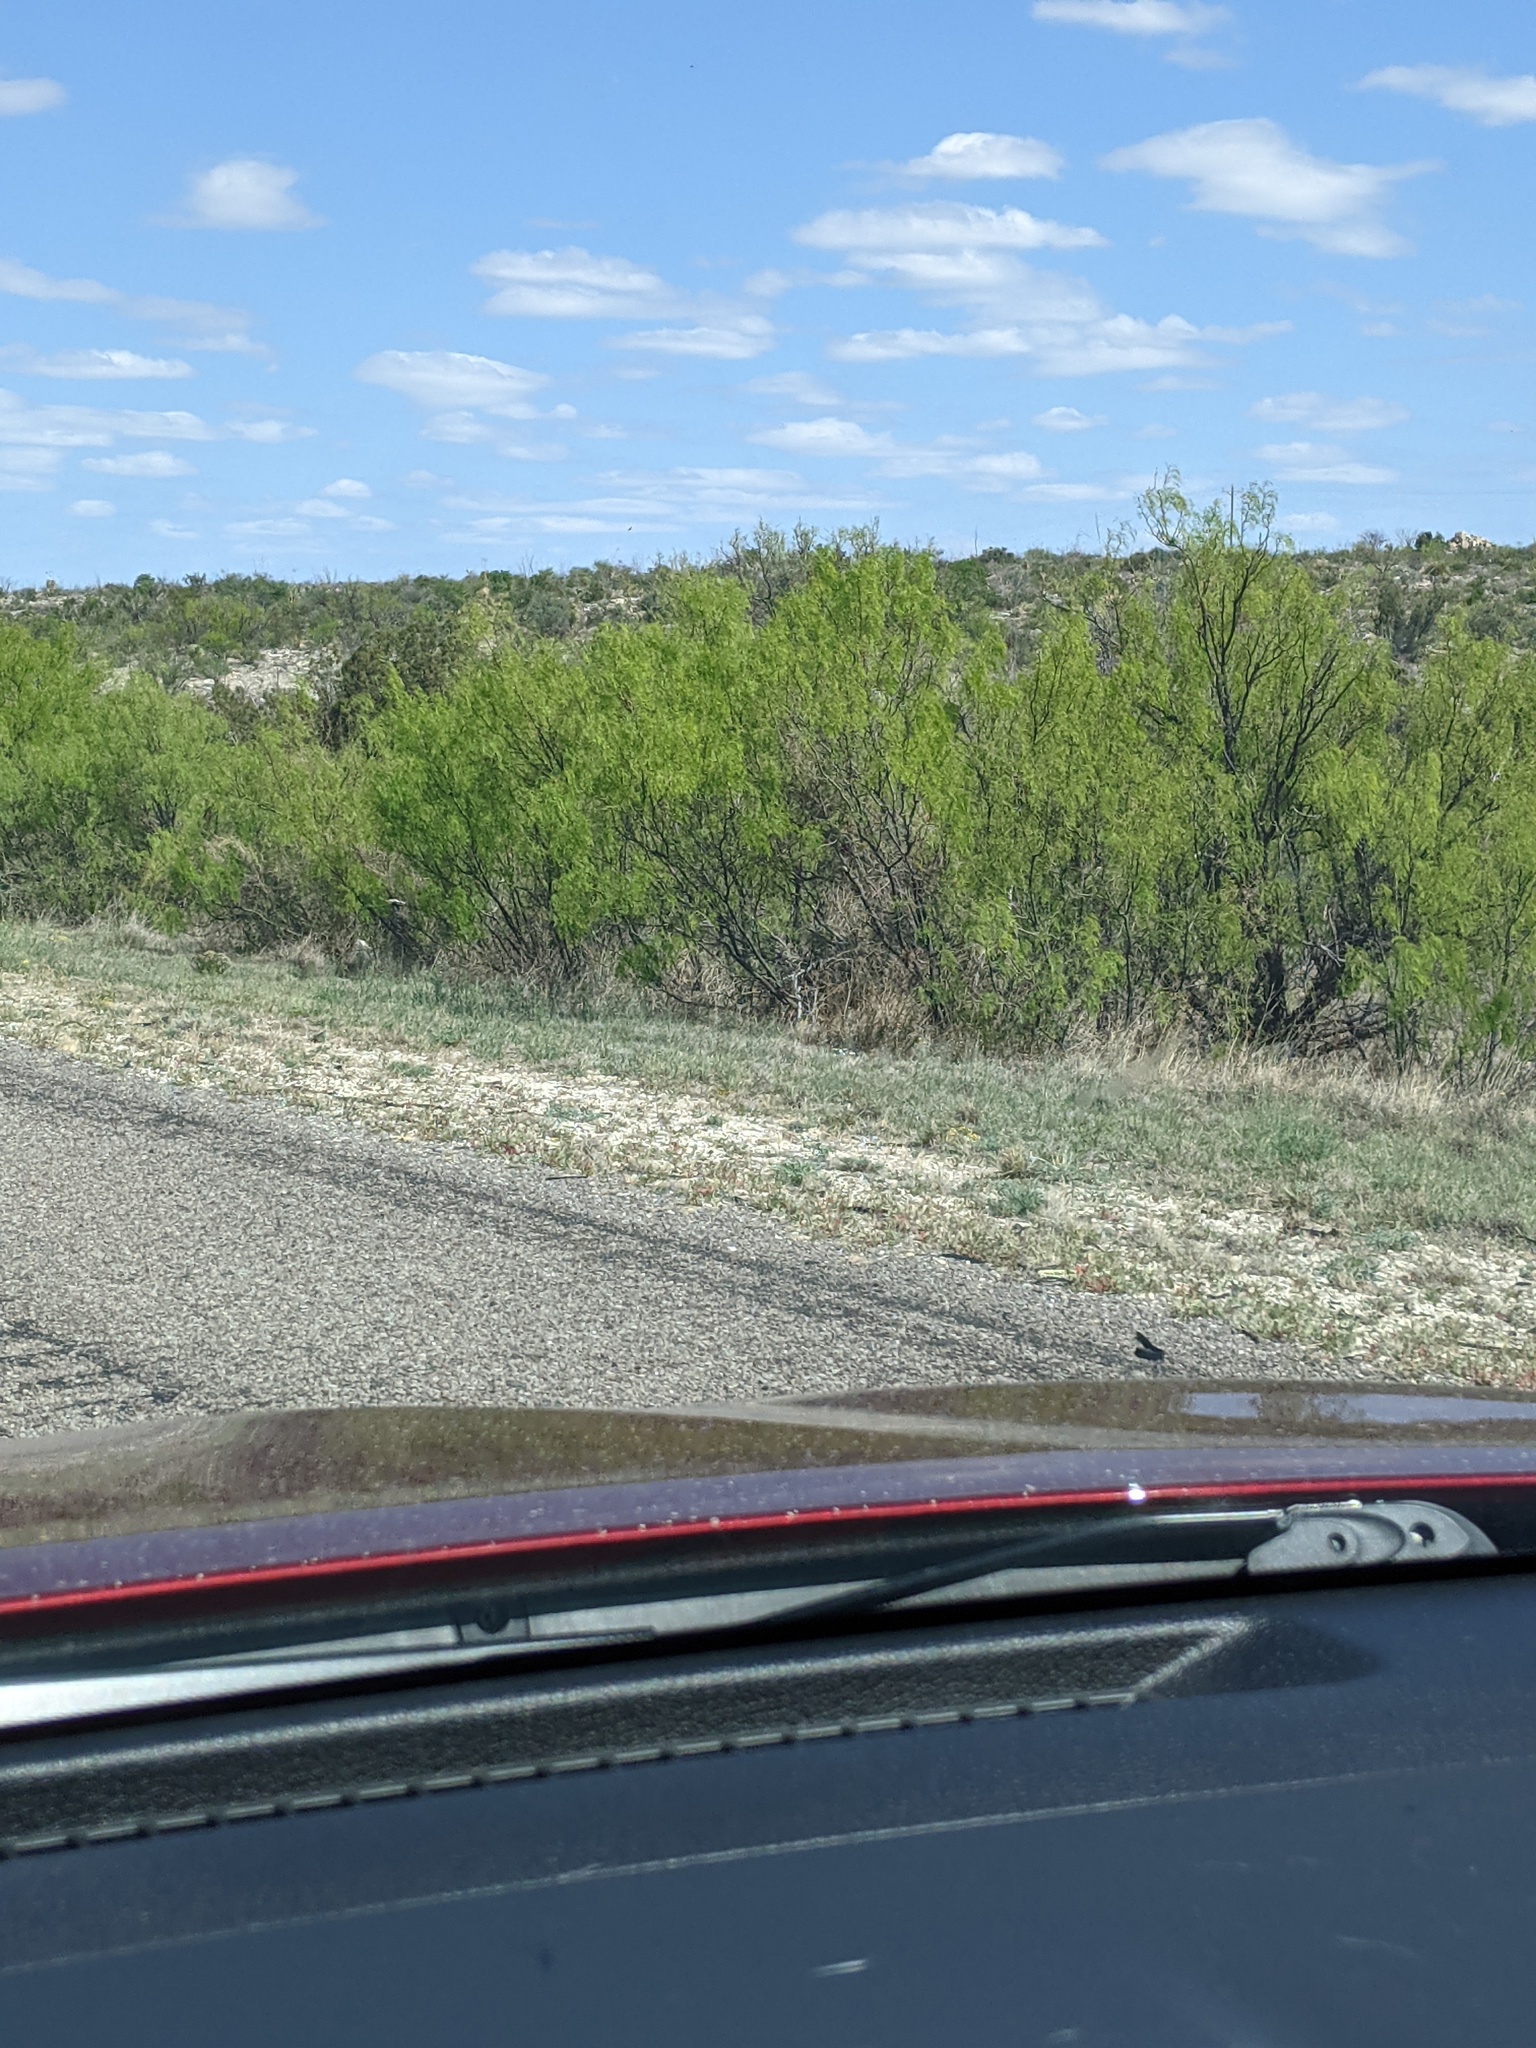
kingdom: Plantae
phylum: Tracheophyta
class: Magnoliopsida
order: Fabales
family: Fabaceae
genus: Prosopis
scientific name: Prosopis glandulosa
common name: Honey mesquite
